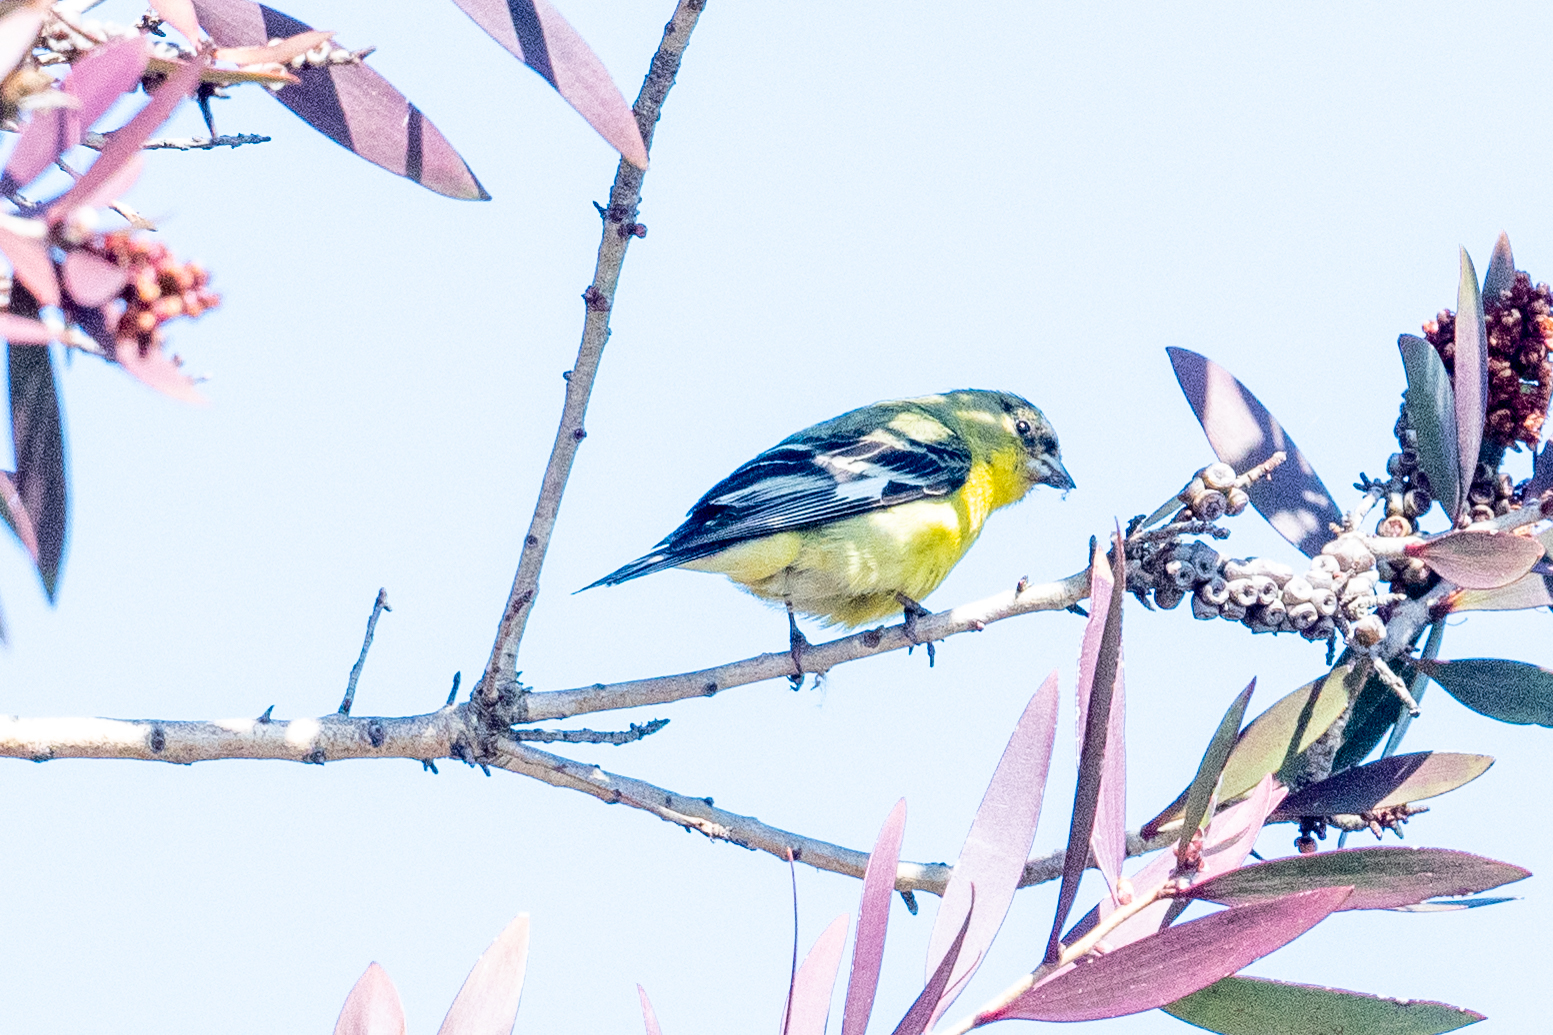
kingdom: Animalia
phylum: Chordata
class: Aves
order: Passeriformes
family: Fringillidae
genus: Spinus
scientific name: Spinus psaltria
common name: Lesser goldfinch
